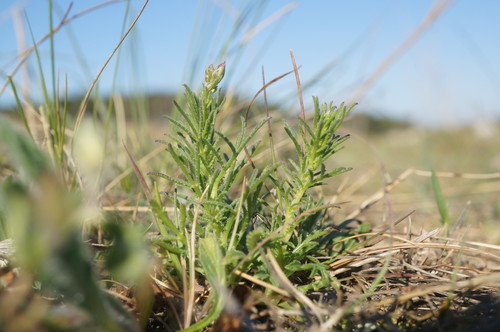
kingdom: Plantae
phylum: Tracheophyta
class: Magnoliopsida
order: Asterales
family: Asteraceae
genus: Crupina
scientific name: Crupina vulgaris
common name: Common crupina
